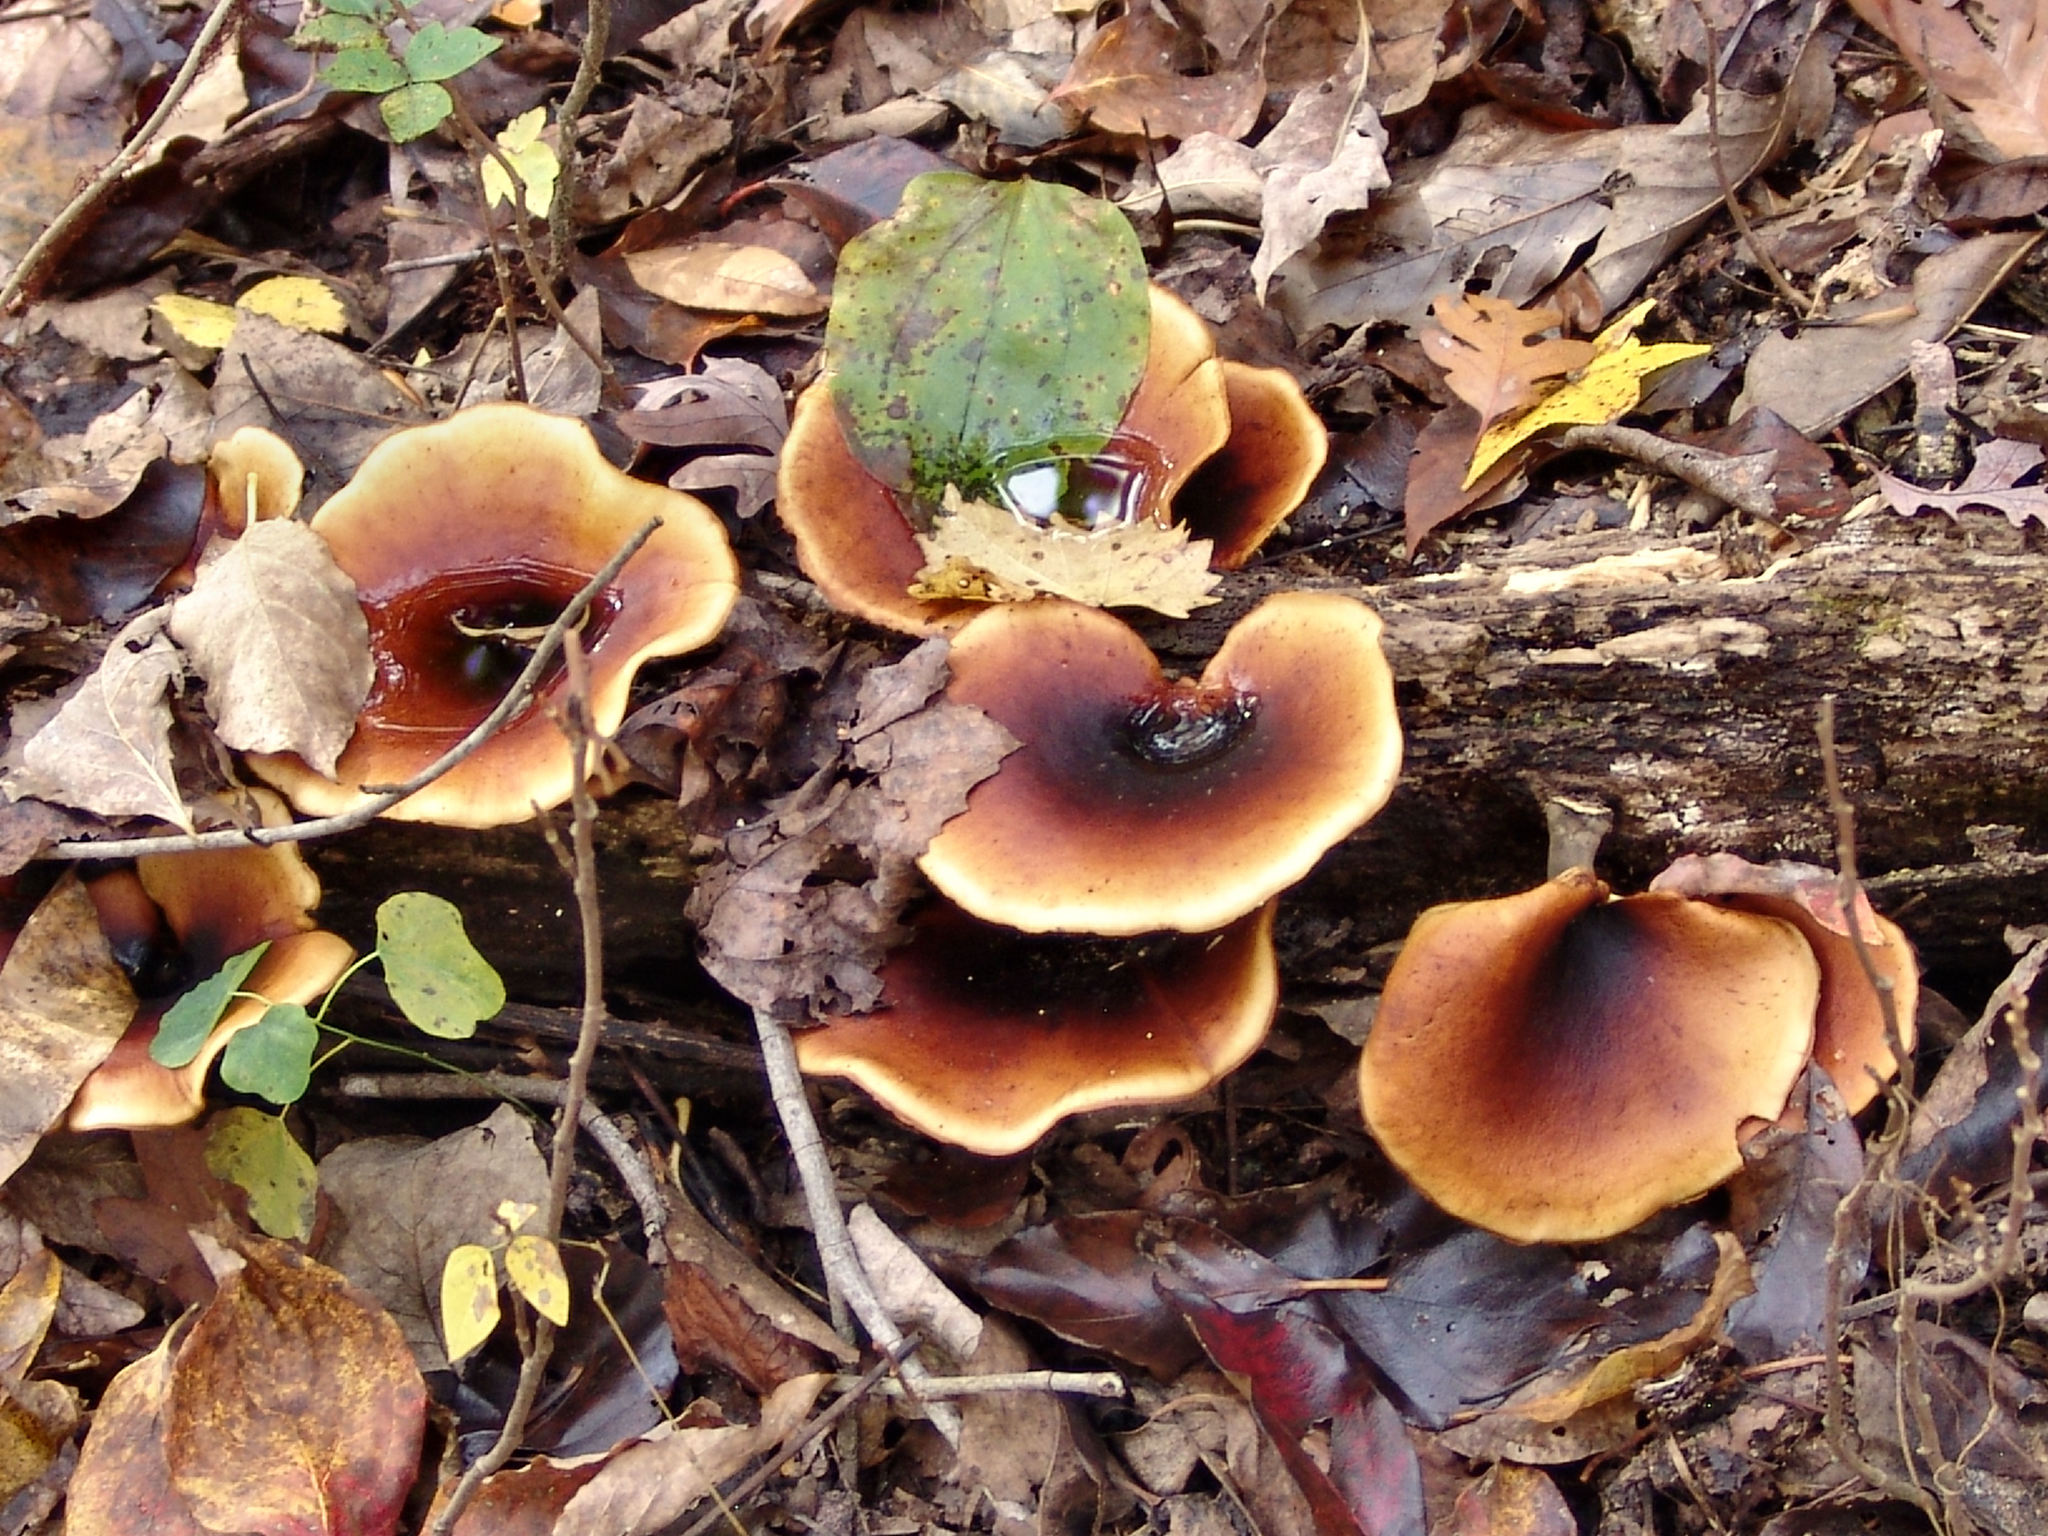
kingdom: Fungi
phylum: Basidiomycota
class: Agaricomycetes
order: Polyporales
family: Polyporaceae
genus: Picipes
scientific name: Picipes badius
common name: Bay polypore
